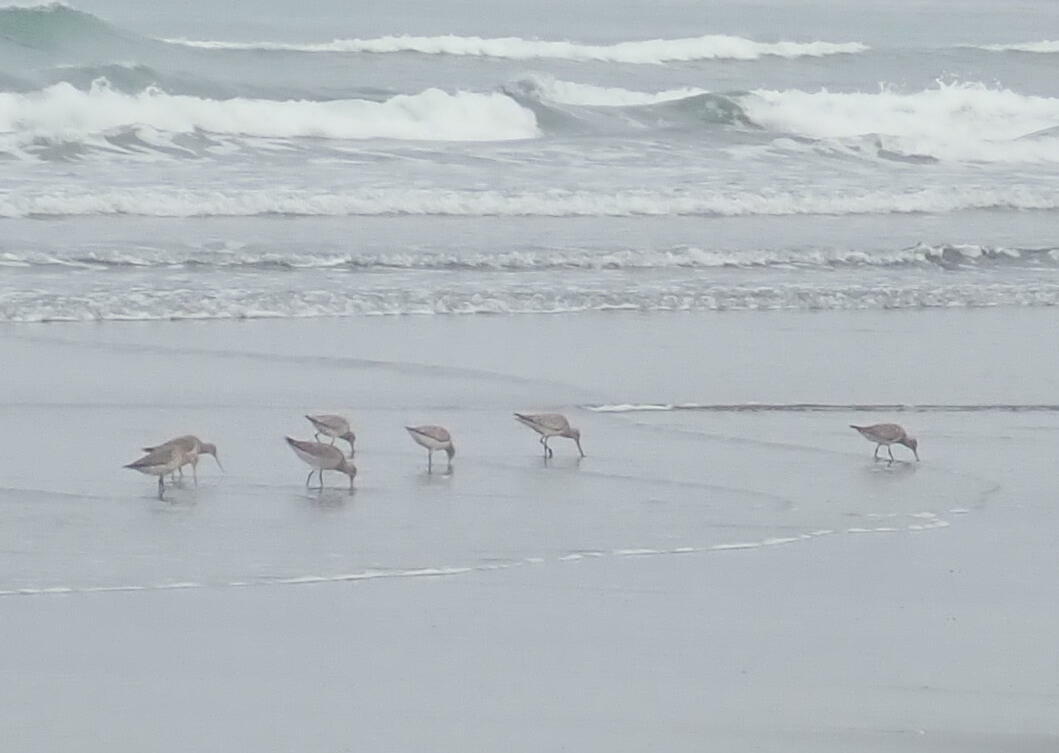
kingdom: Animalia
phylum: Chordata
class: Aves
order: Charadriiformes
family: Scolopacidae
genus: Limosa
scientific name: Limosa lapponica
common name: Bar-tailed godwit
